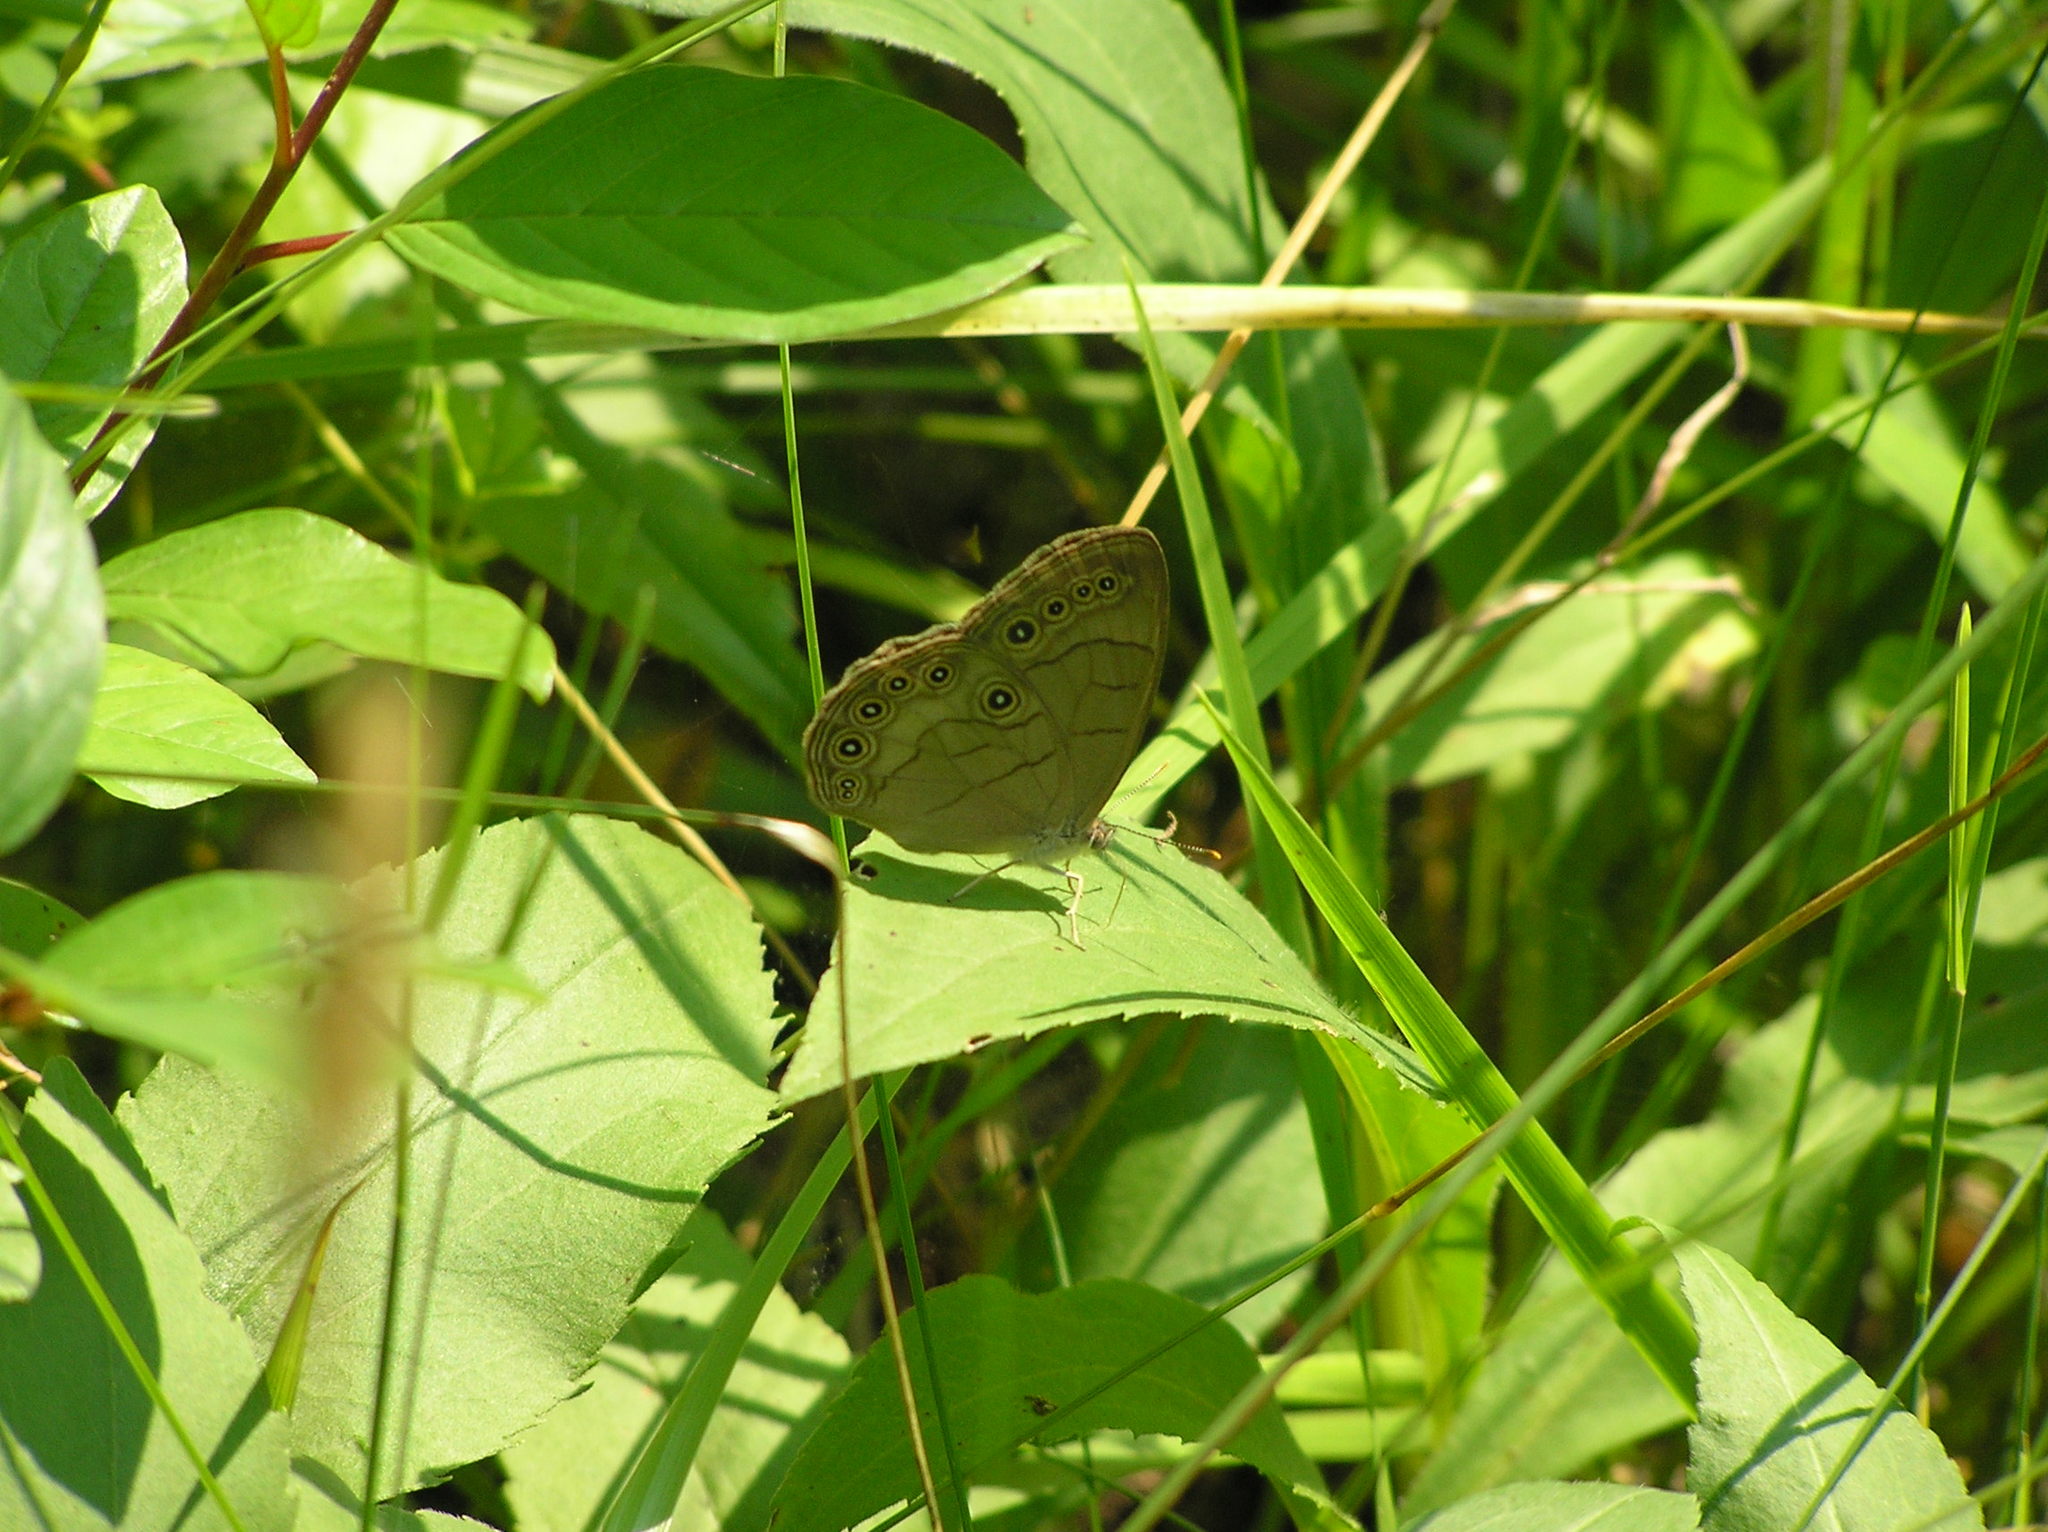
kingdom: Animalia
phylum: Arthropoda
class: Insecta
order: Lepidoptera
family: Nymphalidae
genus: Lethe
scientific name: Lethe eurydice
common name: Eyed brown
